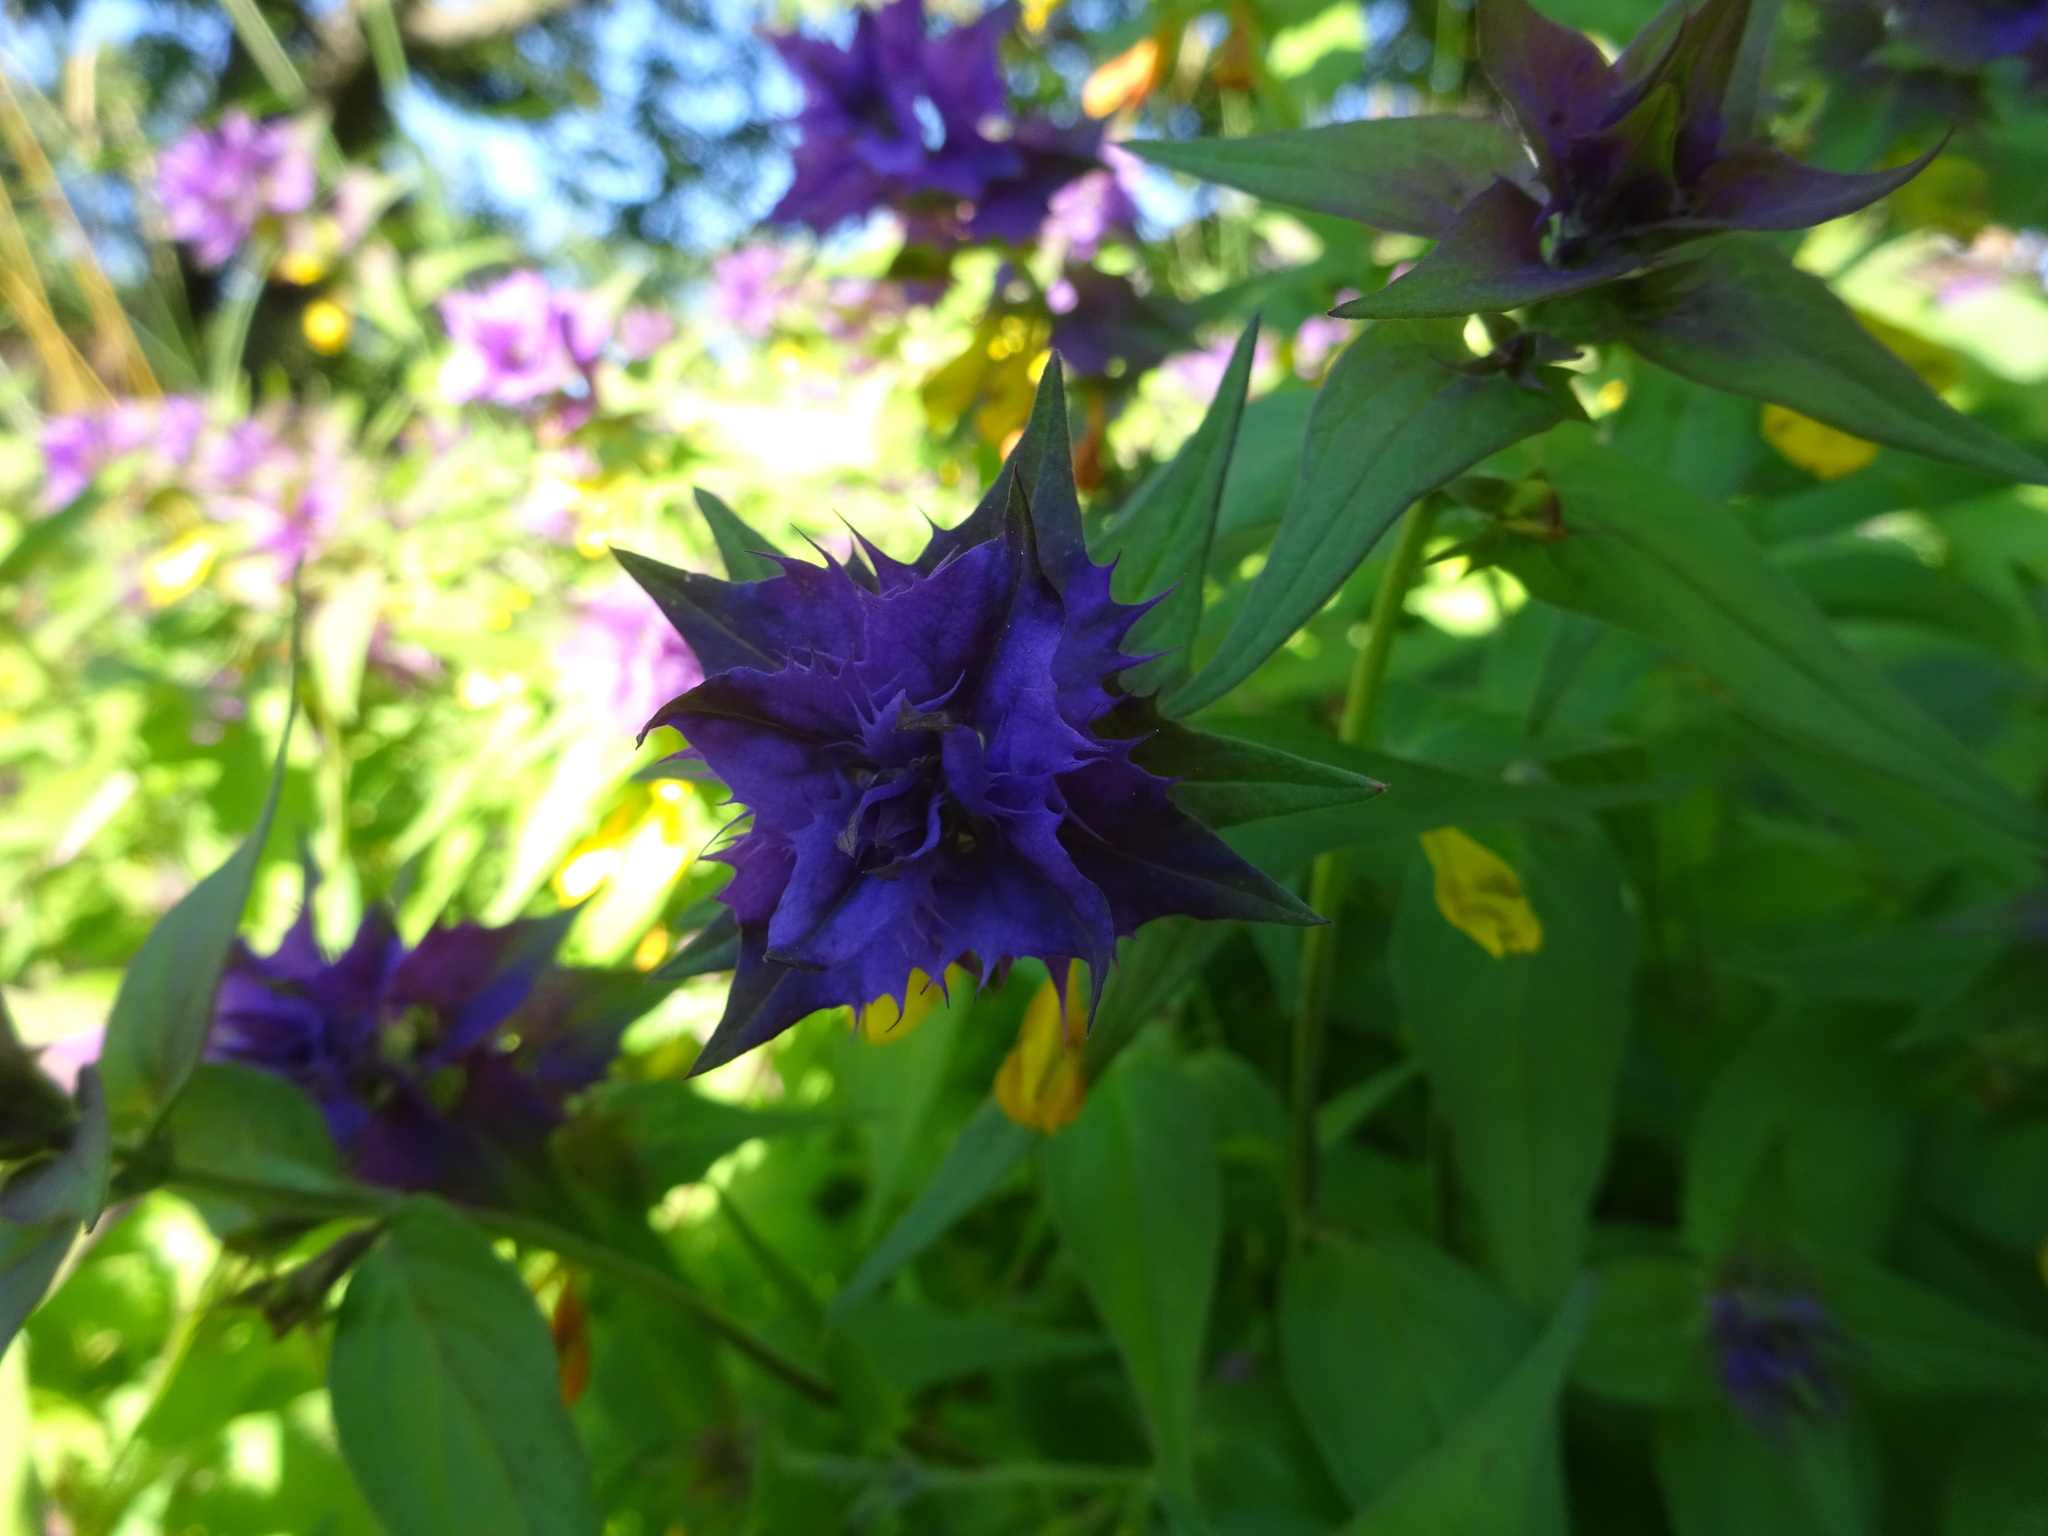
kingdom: Plantae
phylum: Tracheophyta
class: Magnoliopsida
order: Lamiales
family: Orobanchaceae
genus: Melampyrum
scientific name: Melampyrum catalaunicum
